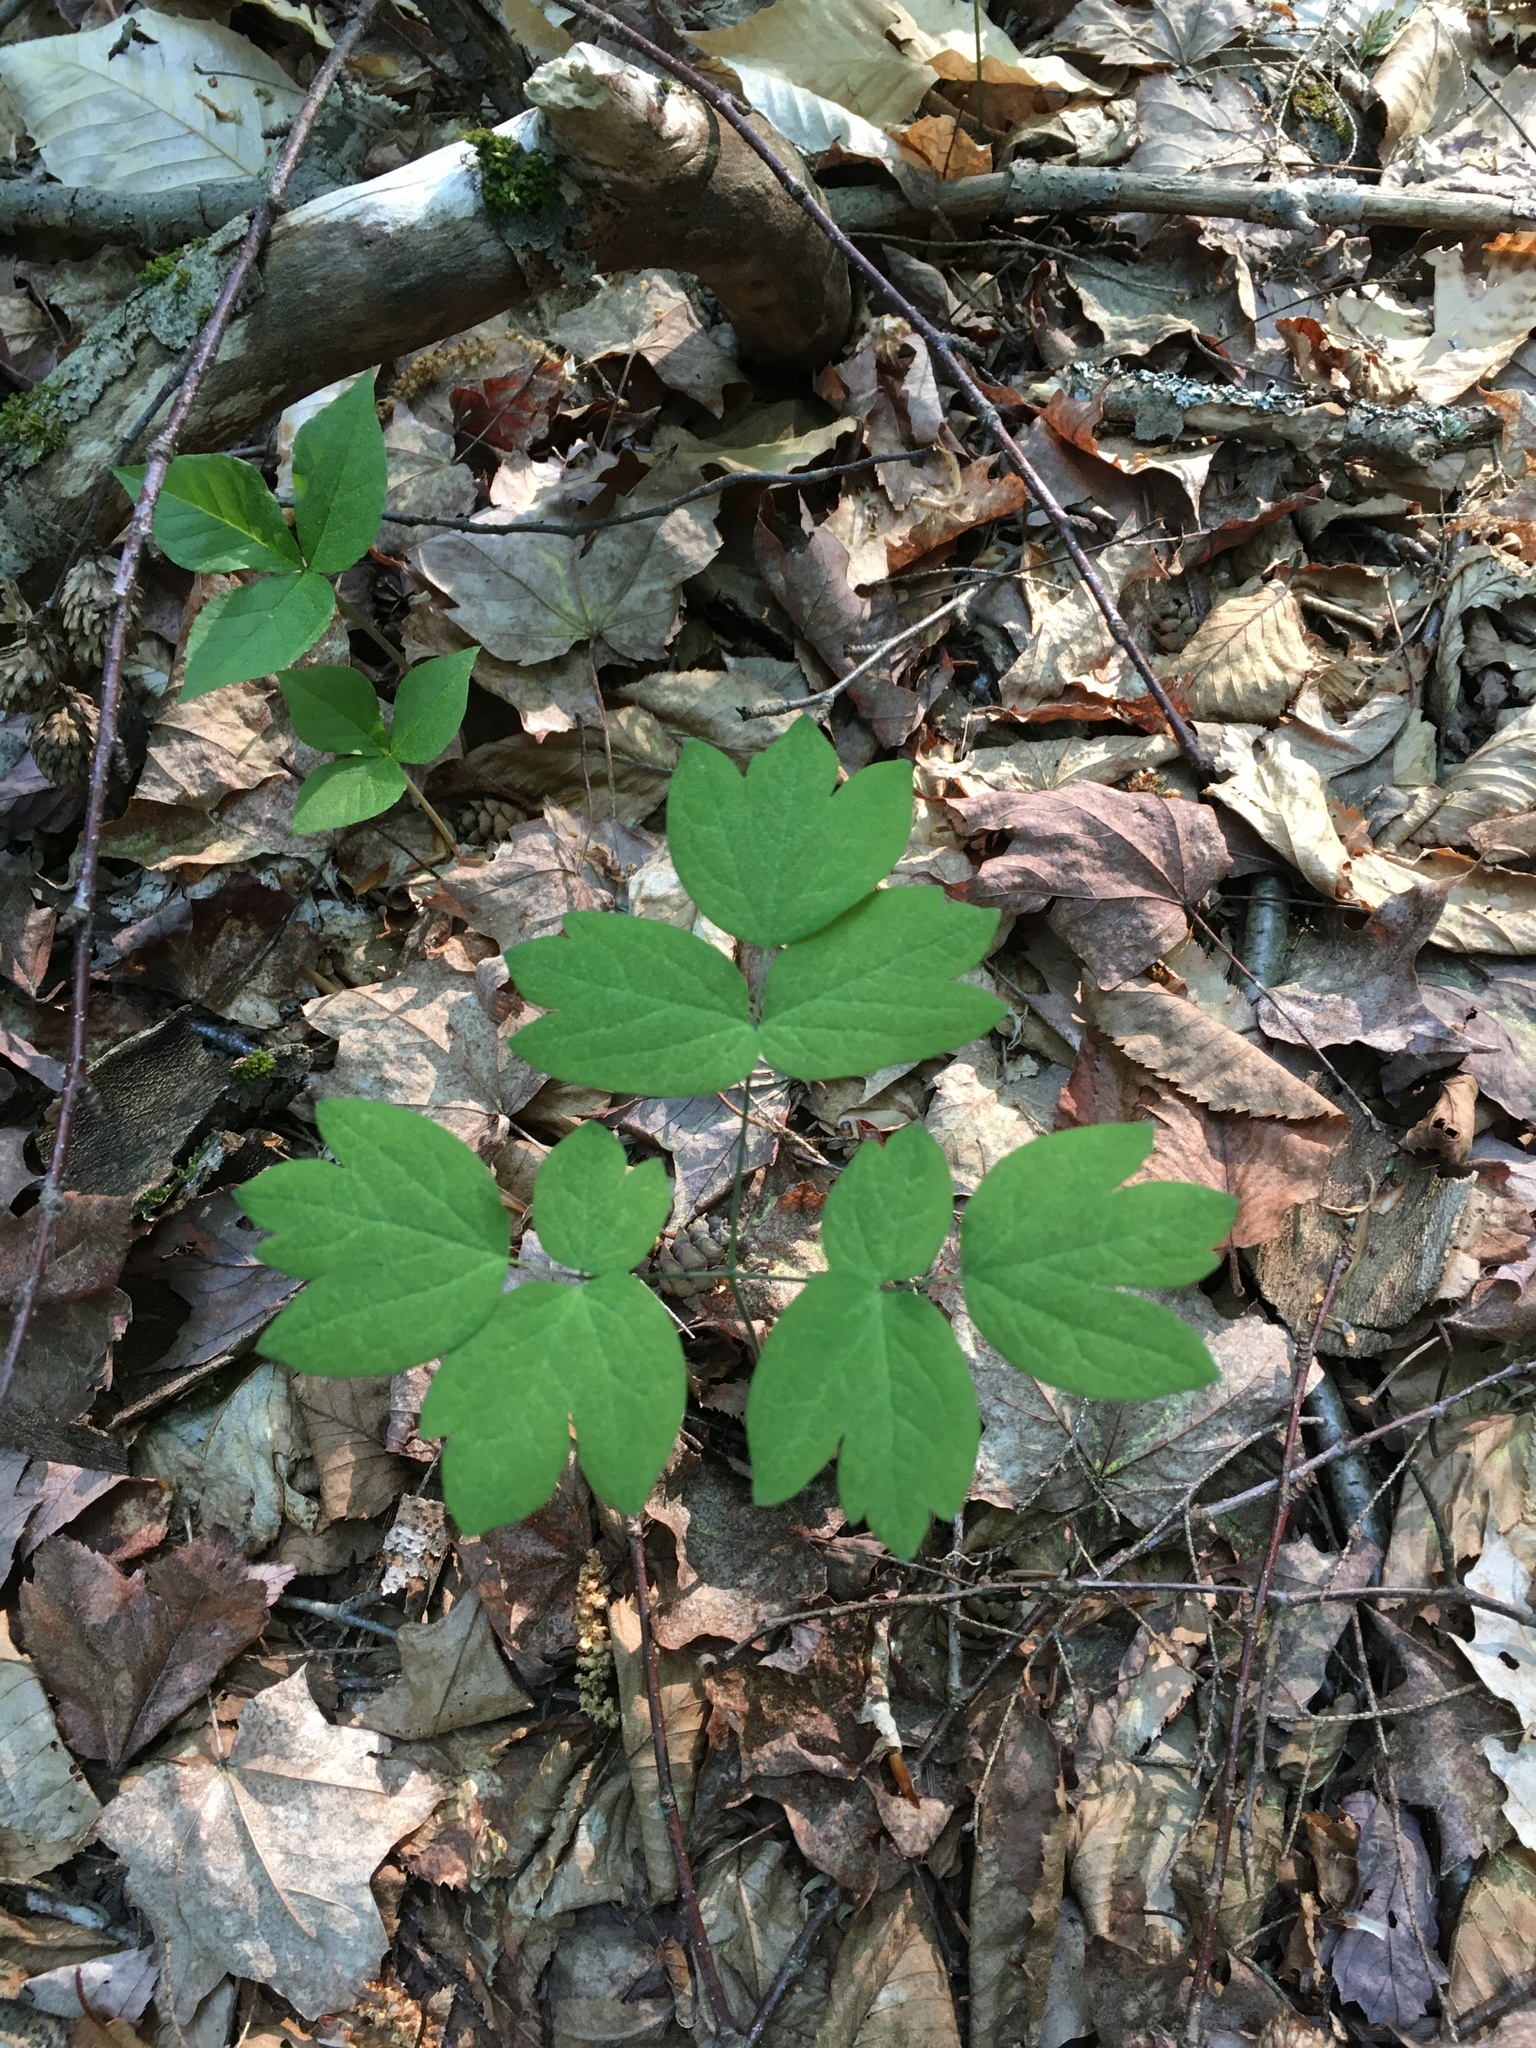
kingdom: Plantae
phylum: Tracheophyta
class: Magnoliopsida
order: Ranunculales
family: Berberidaceae
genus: Caulophyllum
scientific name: Caulophyllum thalictroides
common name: Blue cohosh
